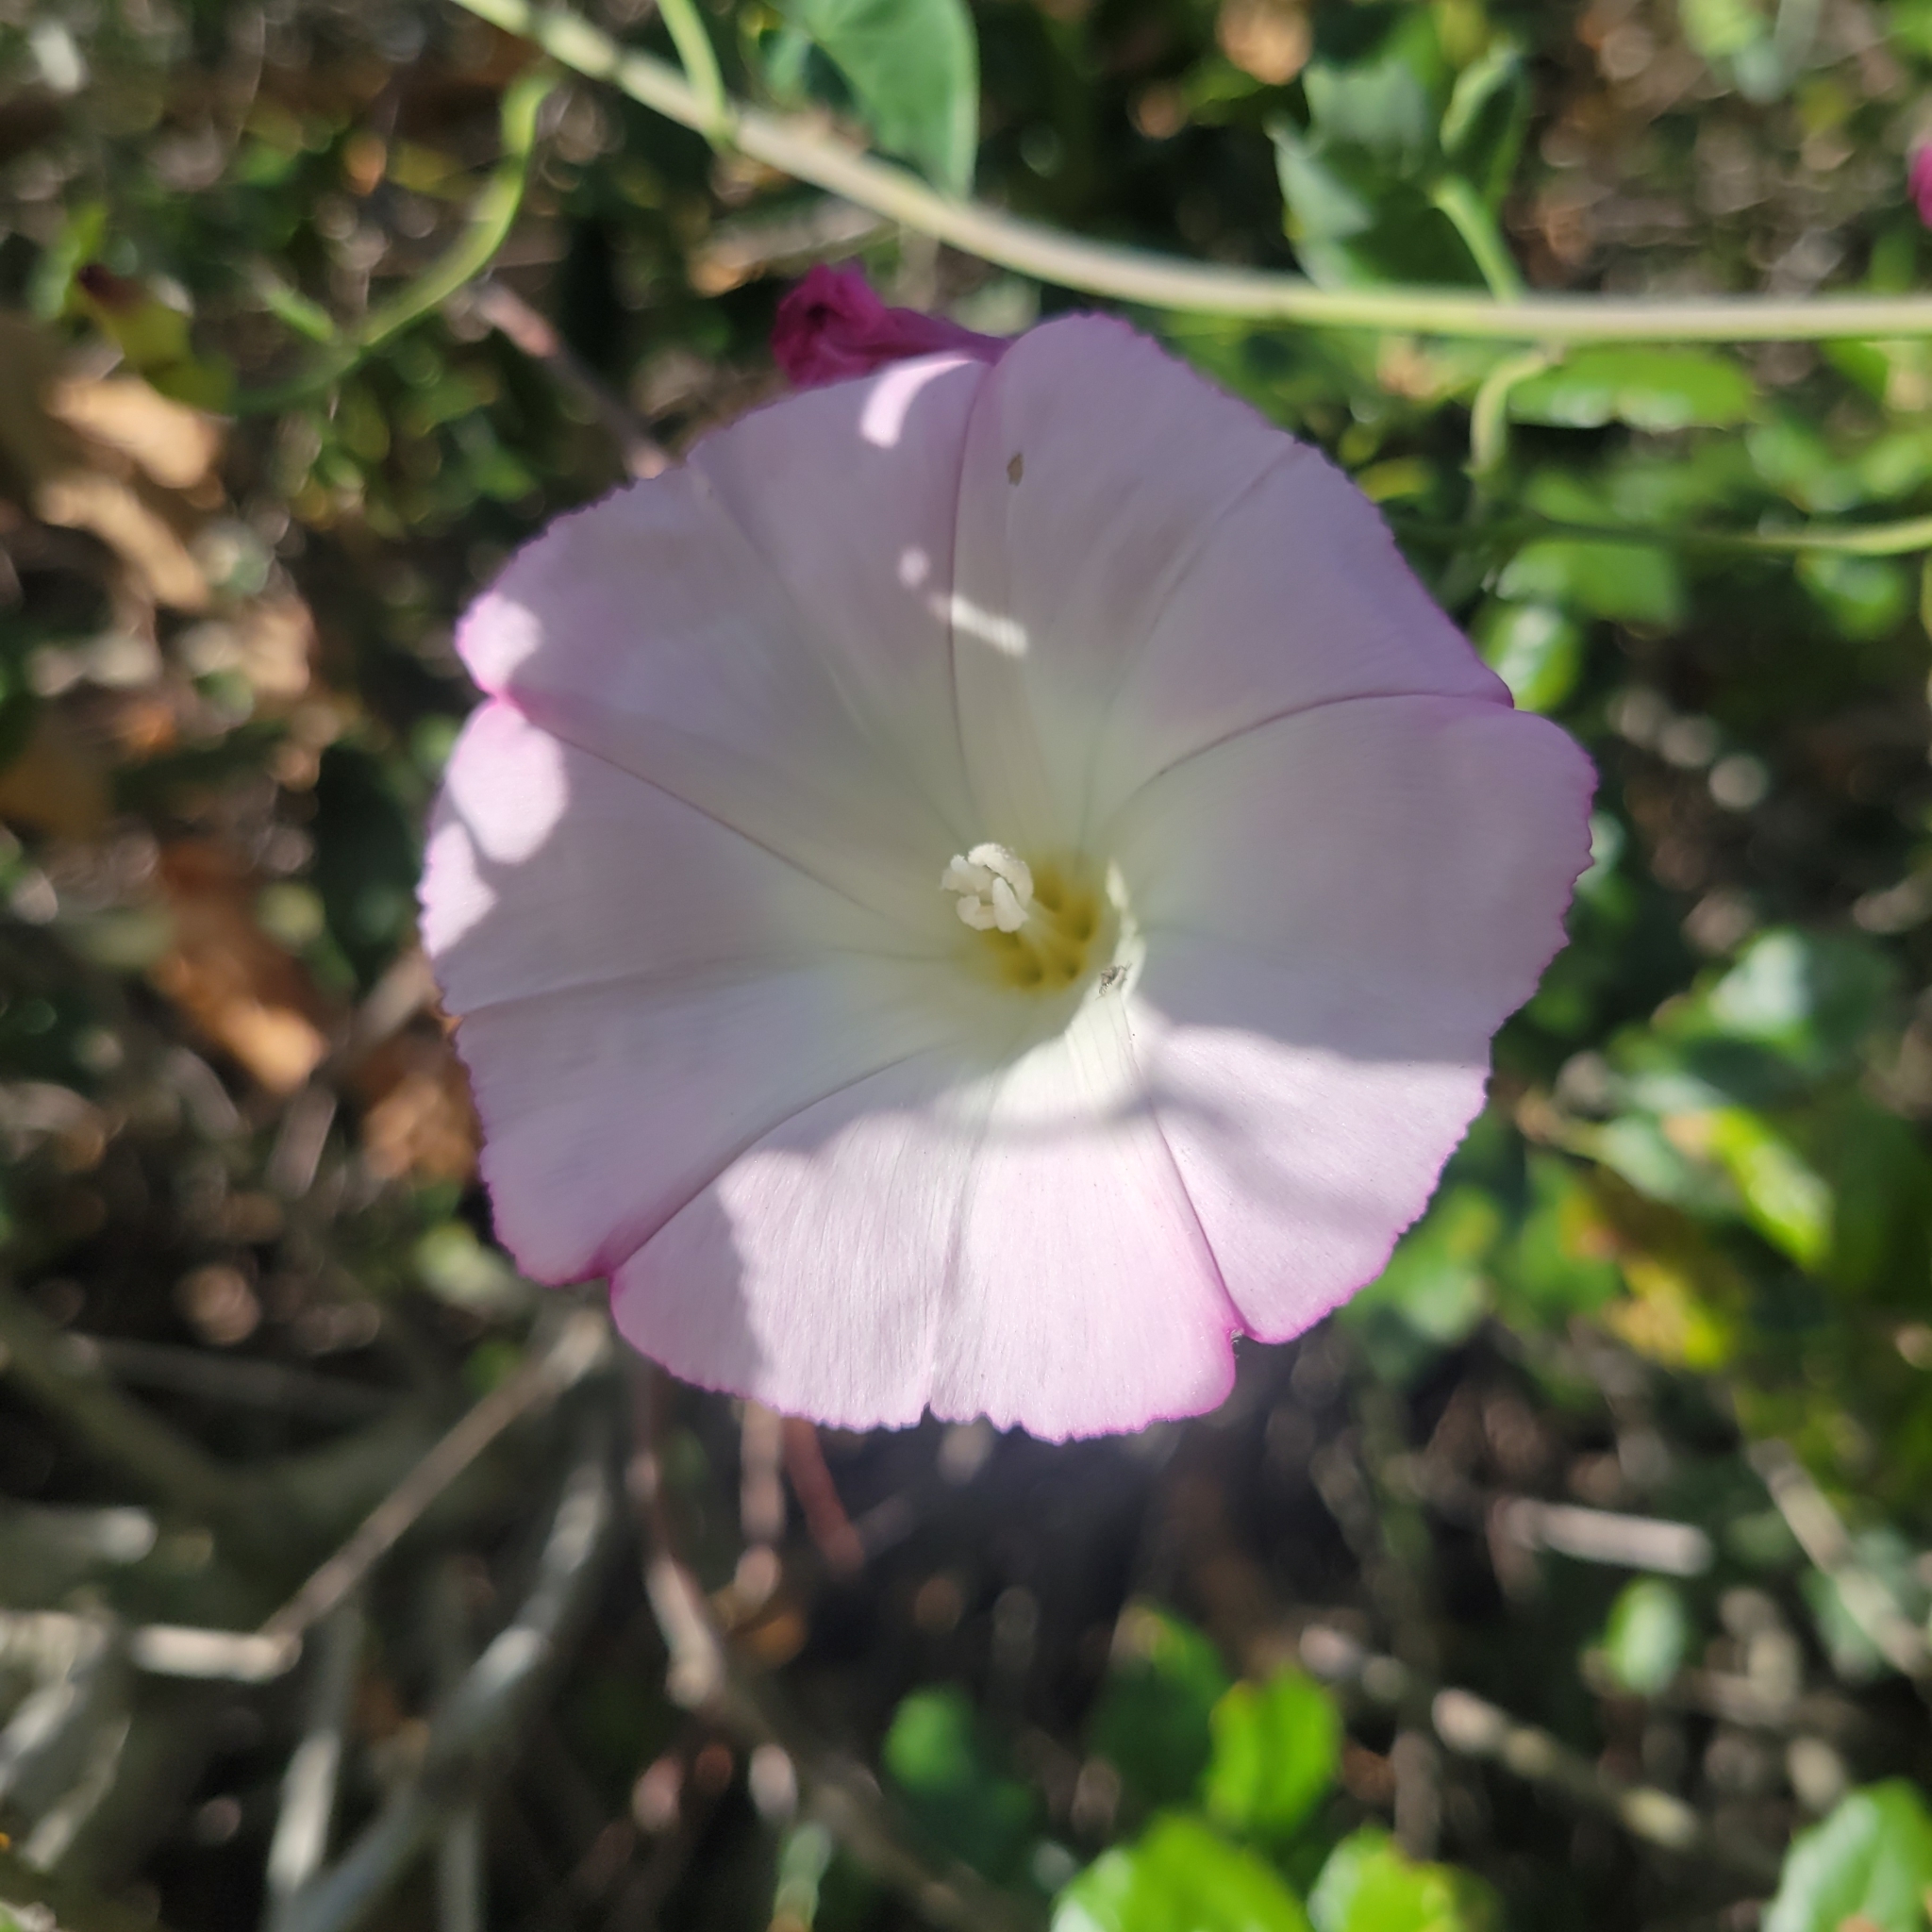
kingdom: Plantae
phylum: Tracheophyta
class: Magnoliopsida
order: Solanales
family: Convolvulaceae
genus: Calystegia
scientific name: Calystegia purpurata
